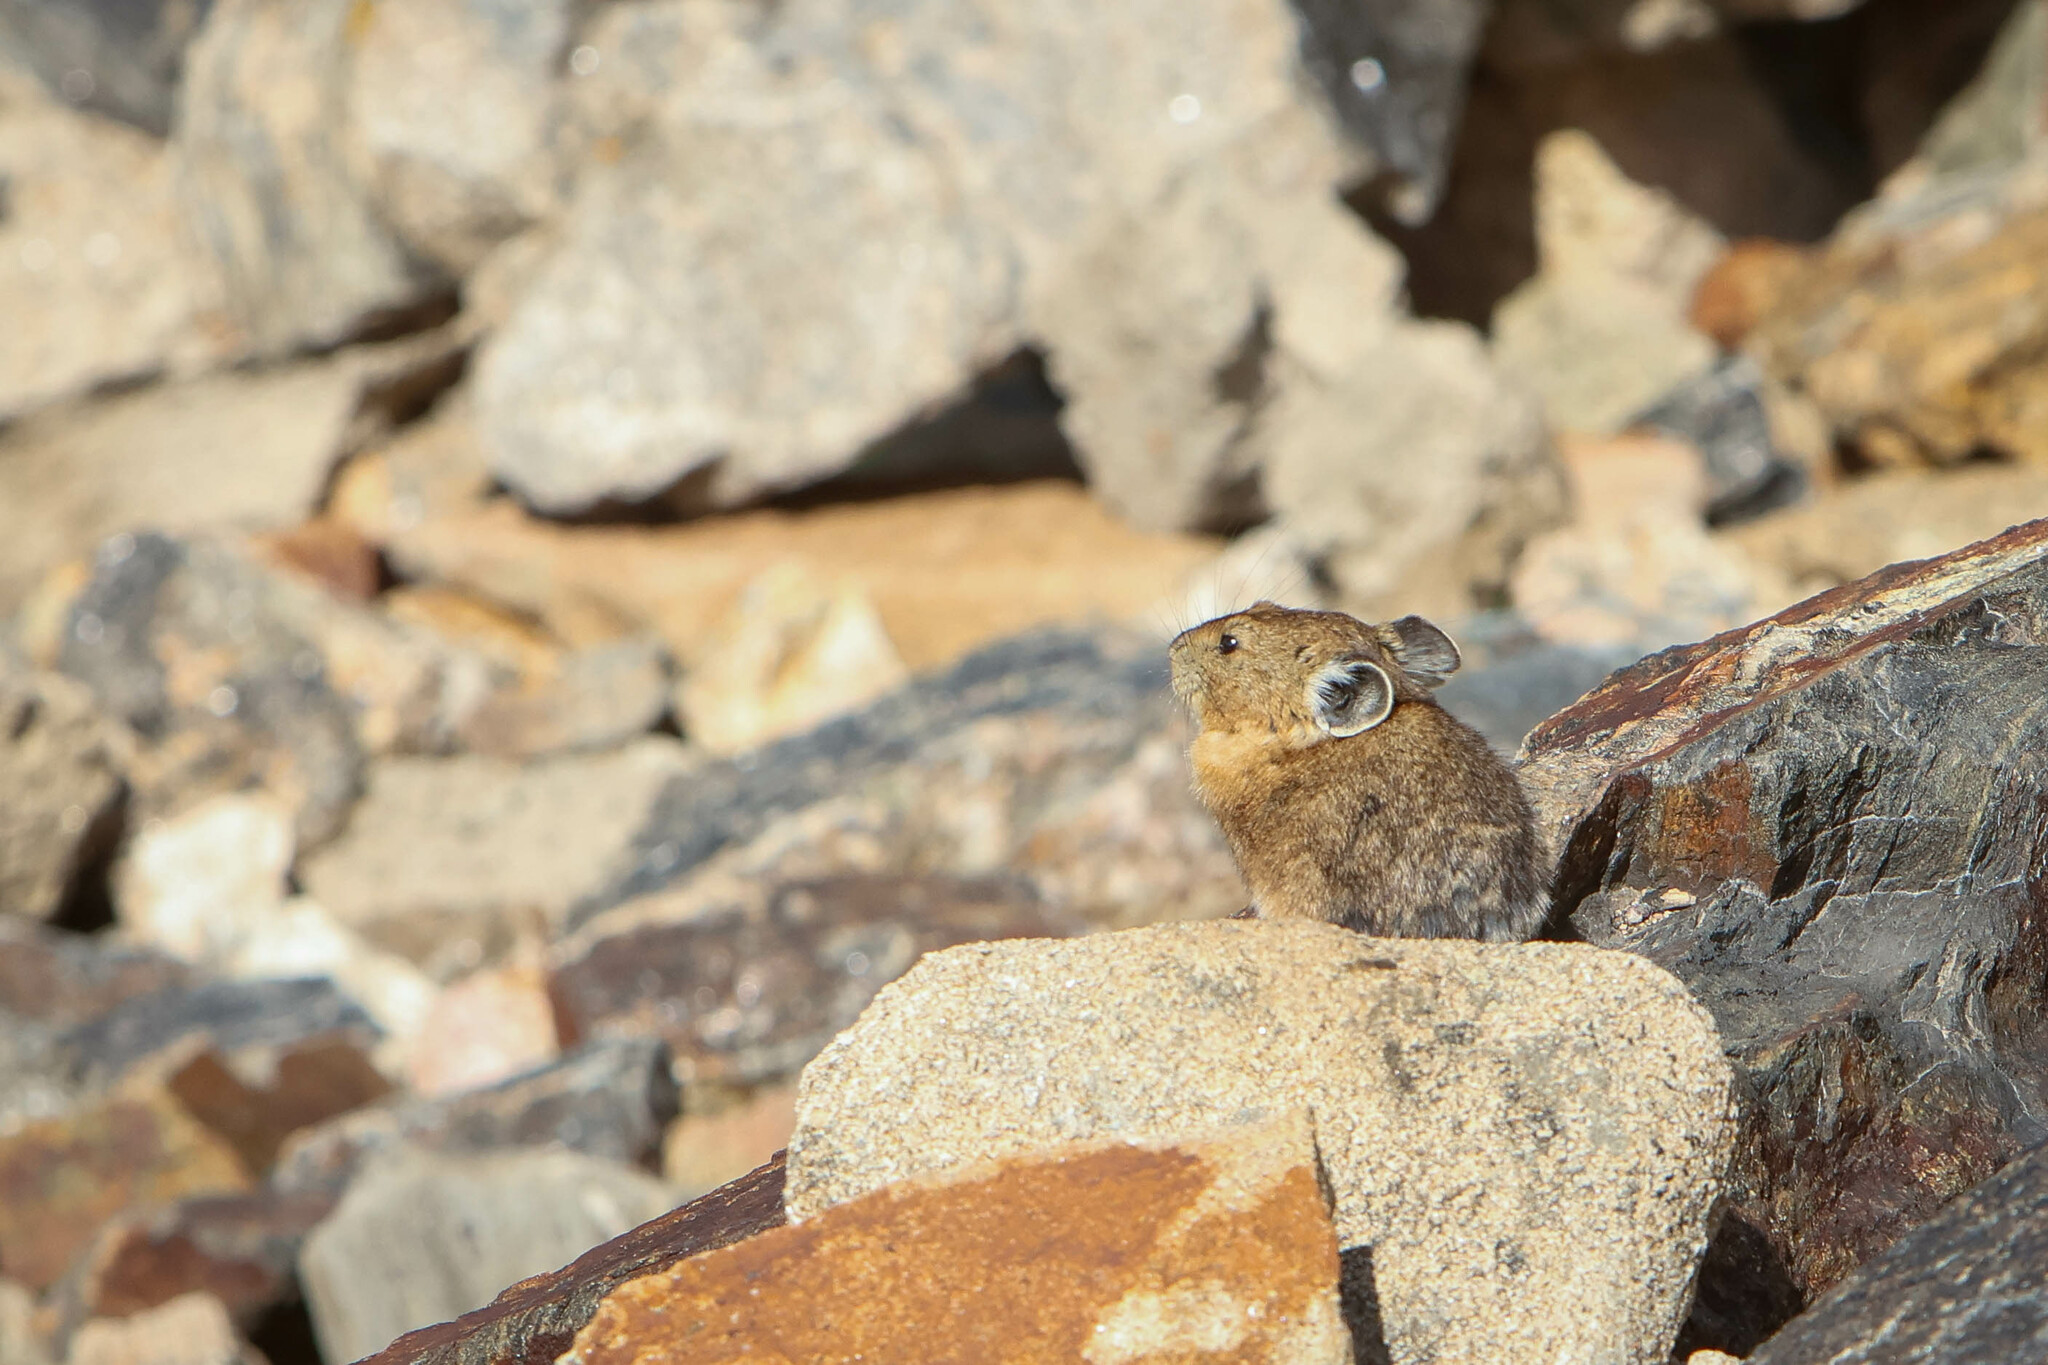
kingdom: Animalia
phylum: Chordata
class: Mammalia
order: Lagomorpha
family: Ochotonidae
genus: Ochotona
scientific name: Ochotona princeps
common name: American pika
